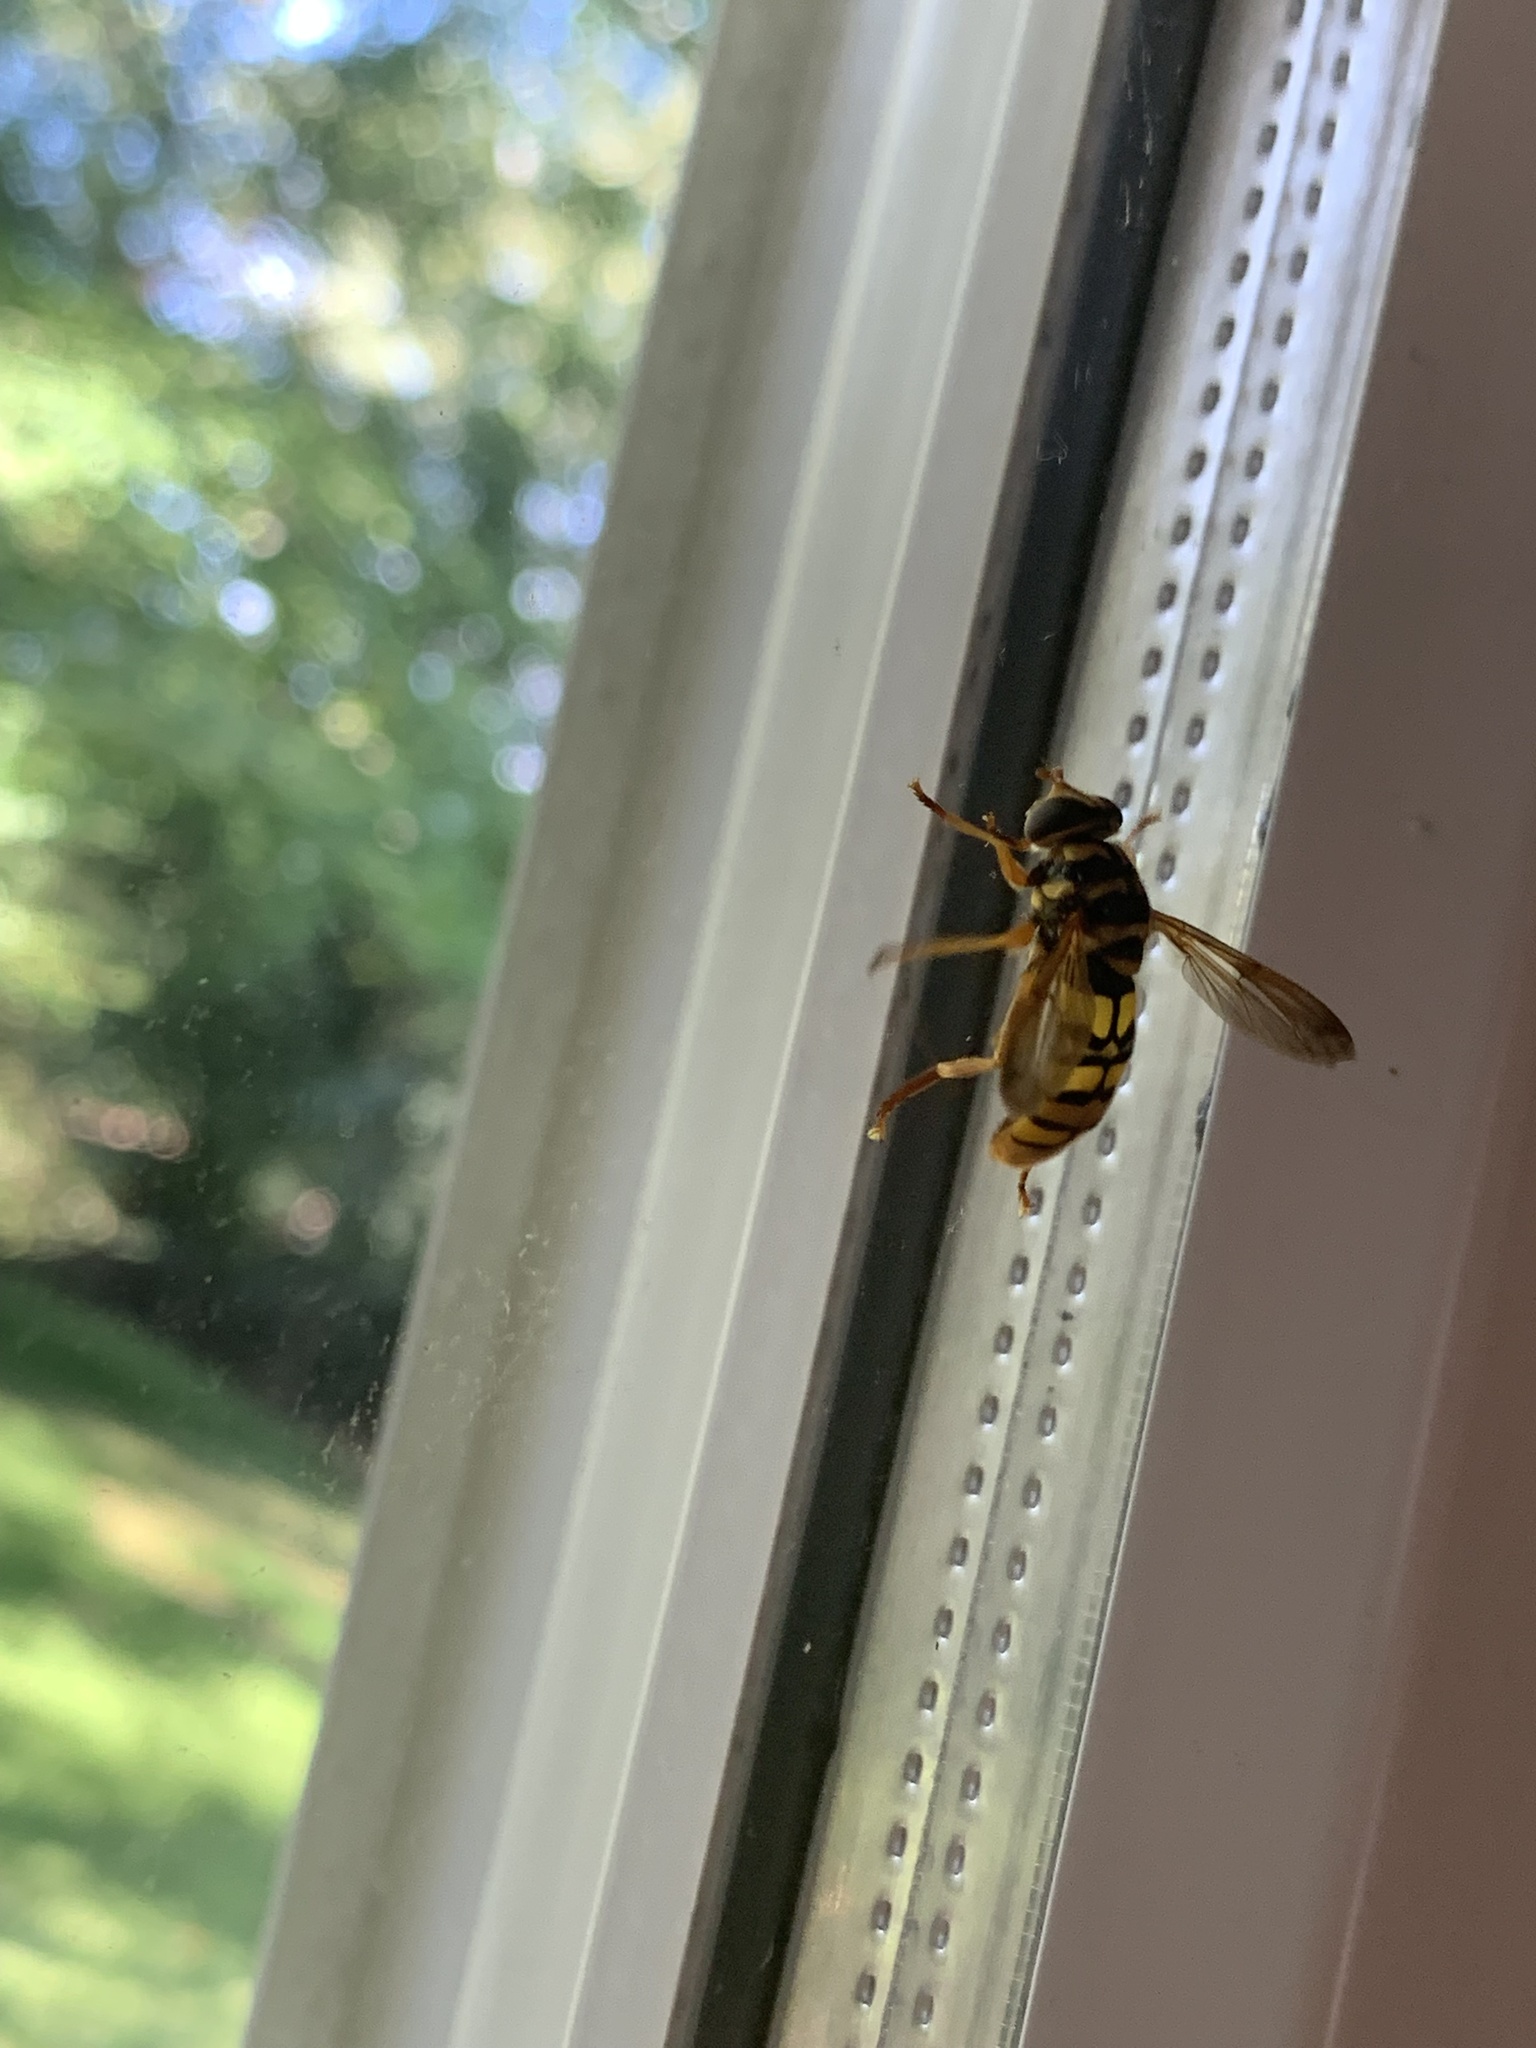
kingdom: Animalia
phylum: Arthropoda
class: Insecta
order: Diptera
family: Syrphidae
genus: Milesia
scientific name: Milesia virginiensis
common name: Virginia giant
